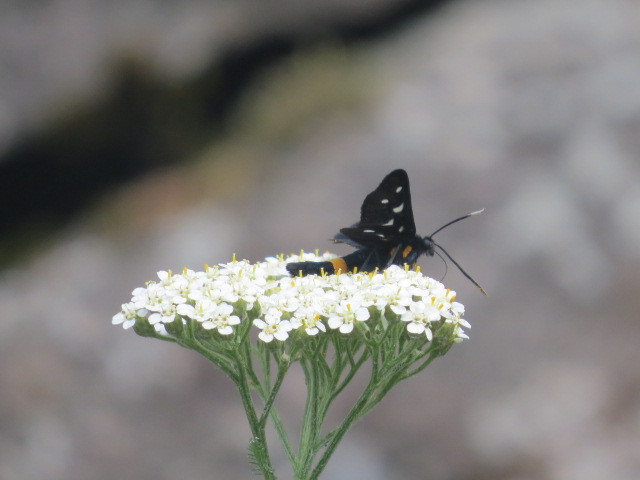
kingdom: Animalia
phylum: Arthropoda
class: Insecta
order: Lepidoptera
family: Erebidae
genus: Amata
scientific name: Amata phegea
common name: Nine-spotted
